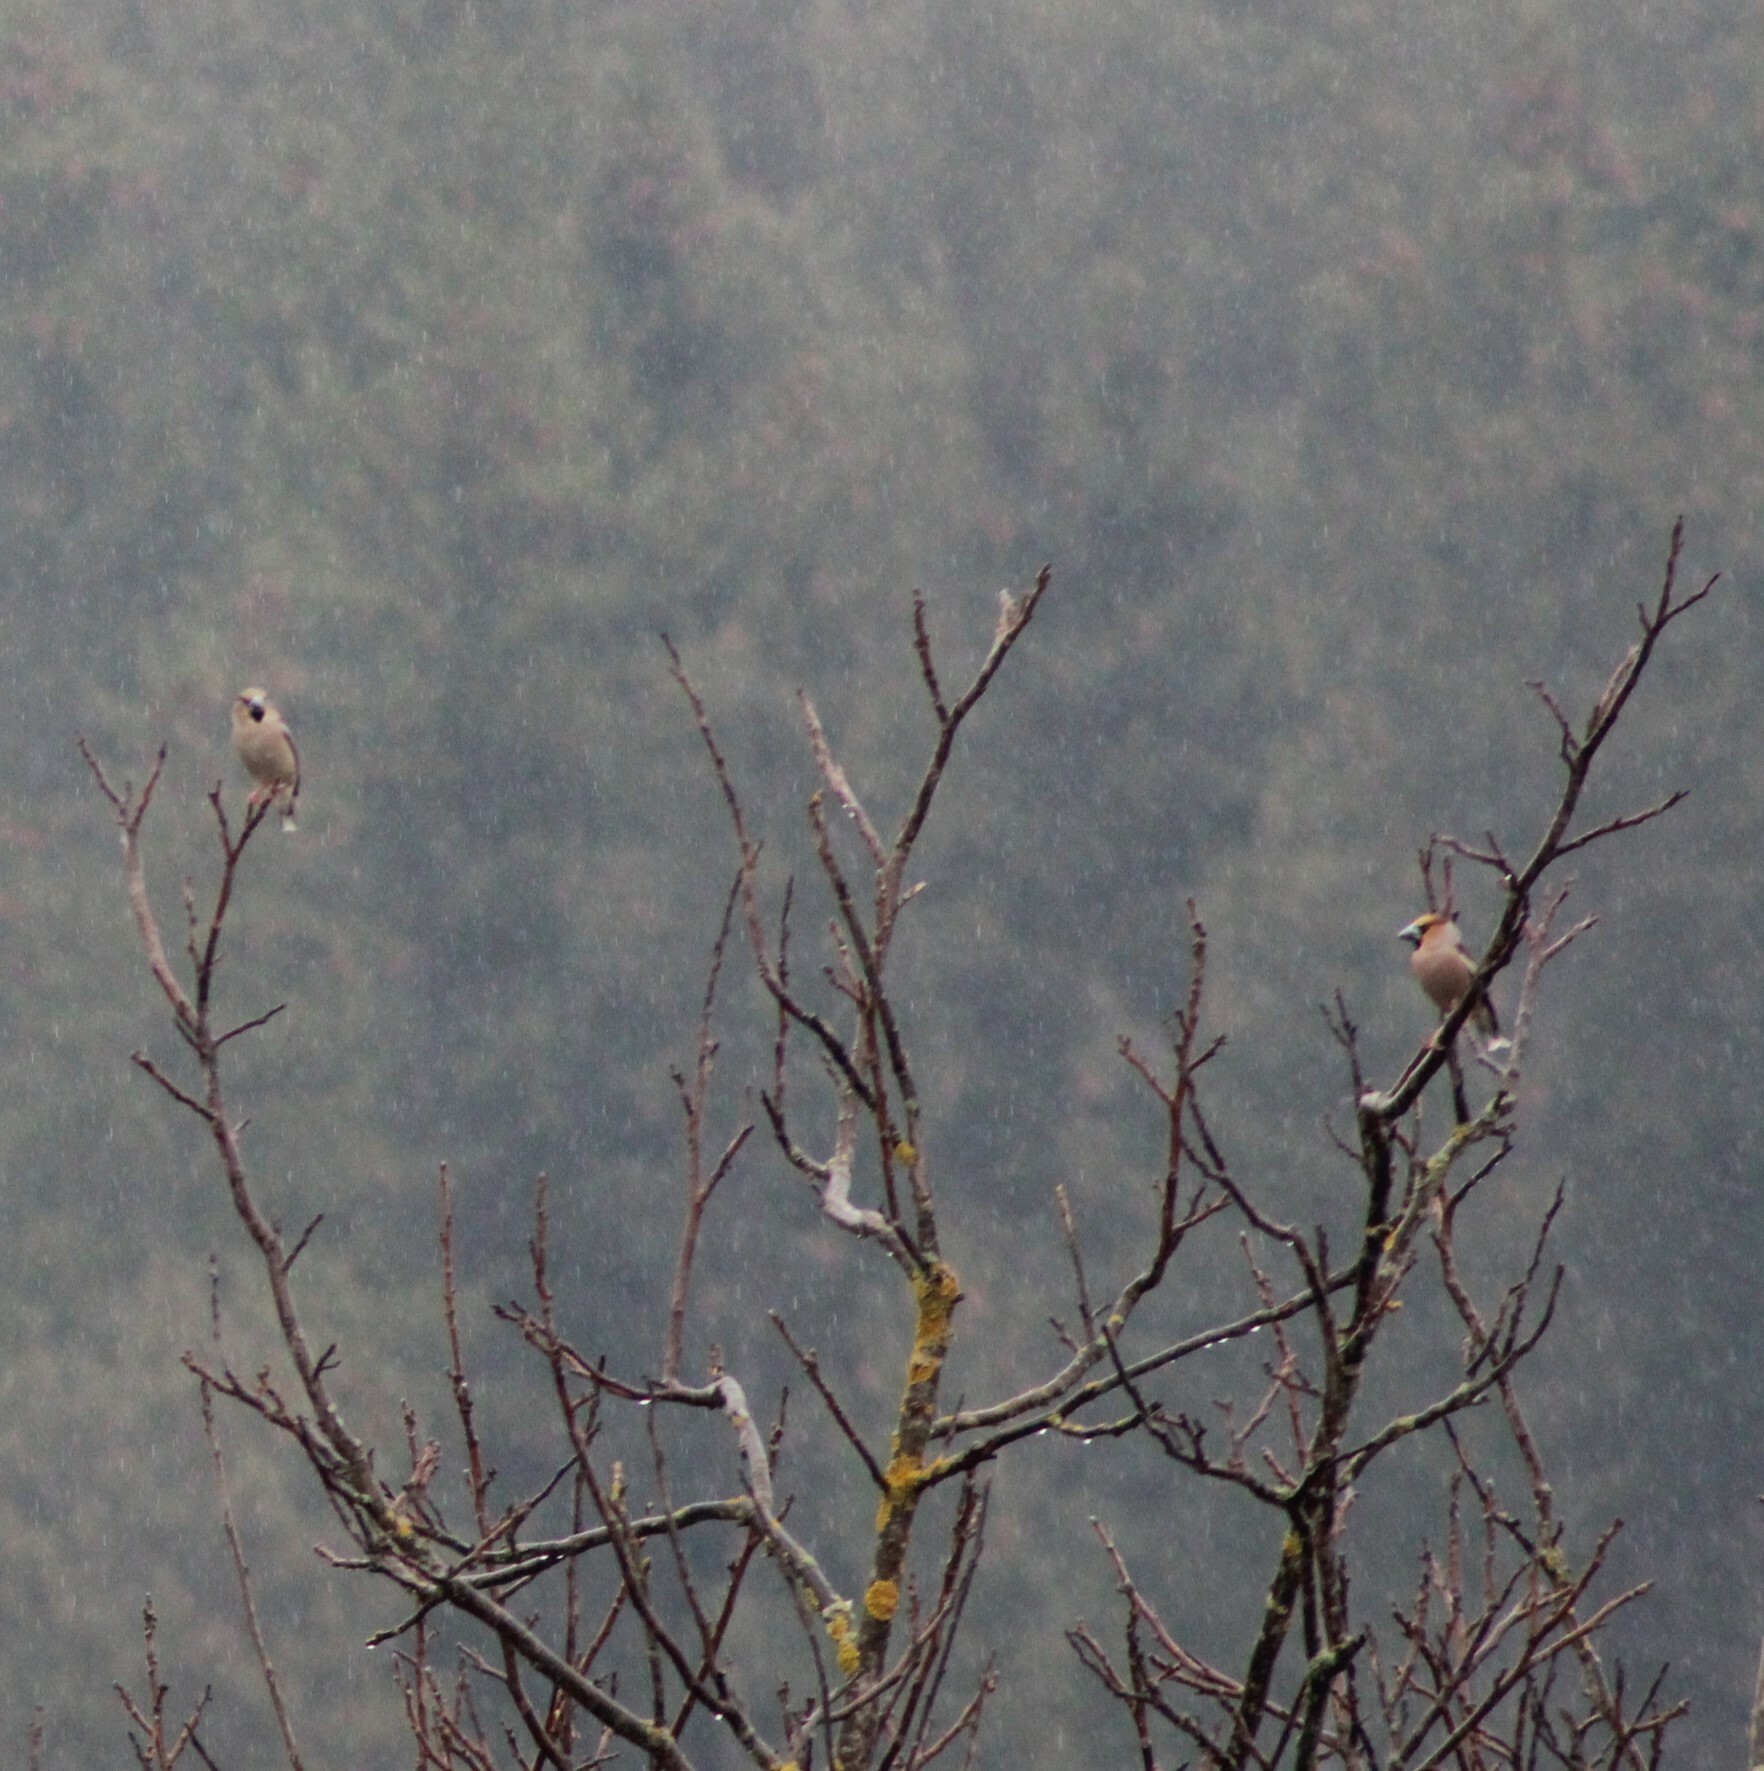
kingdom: Animalia
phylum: Chordata
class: Aves
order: Passeriformes
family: Fringillidae
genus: Coccothraustes
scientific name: Coccothraustes coccothraustes
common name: Hawfinch
